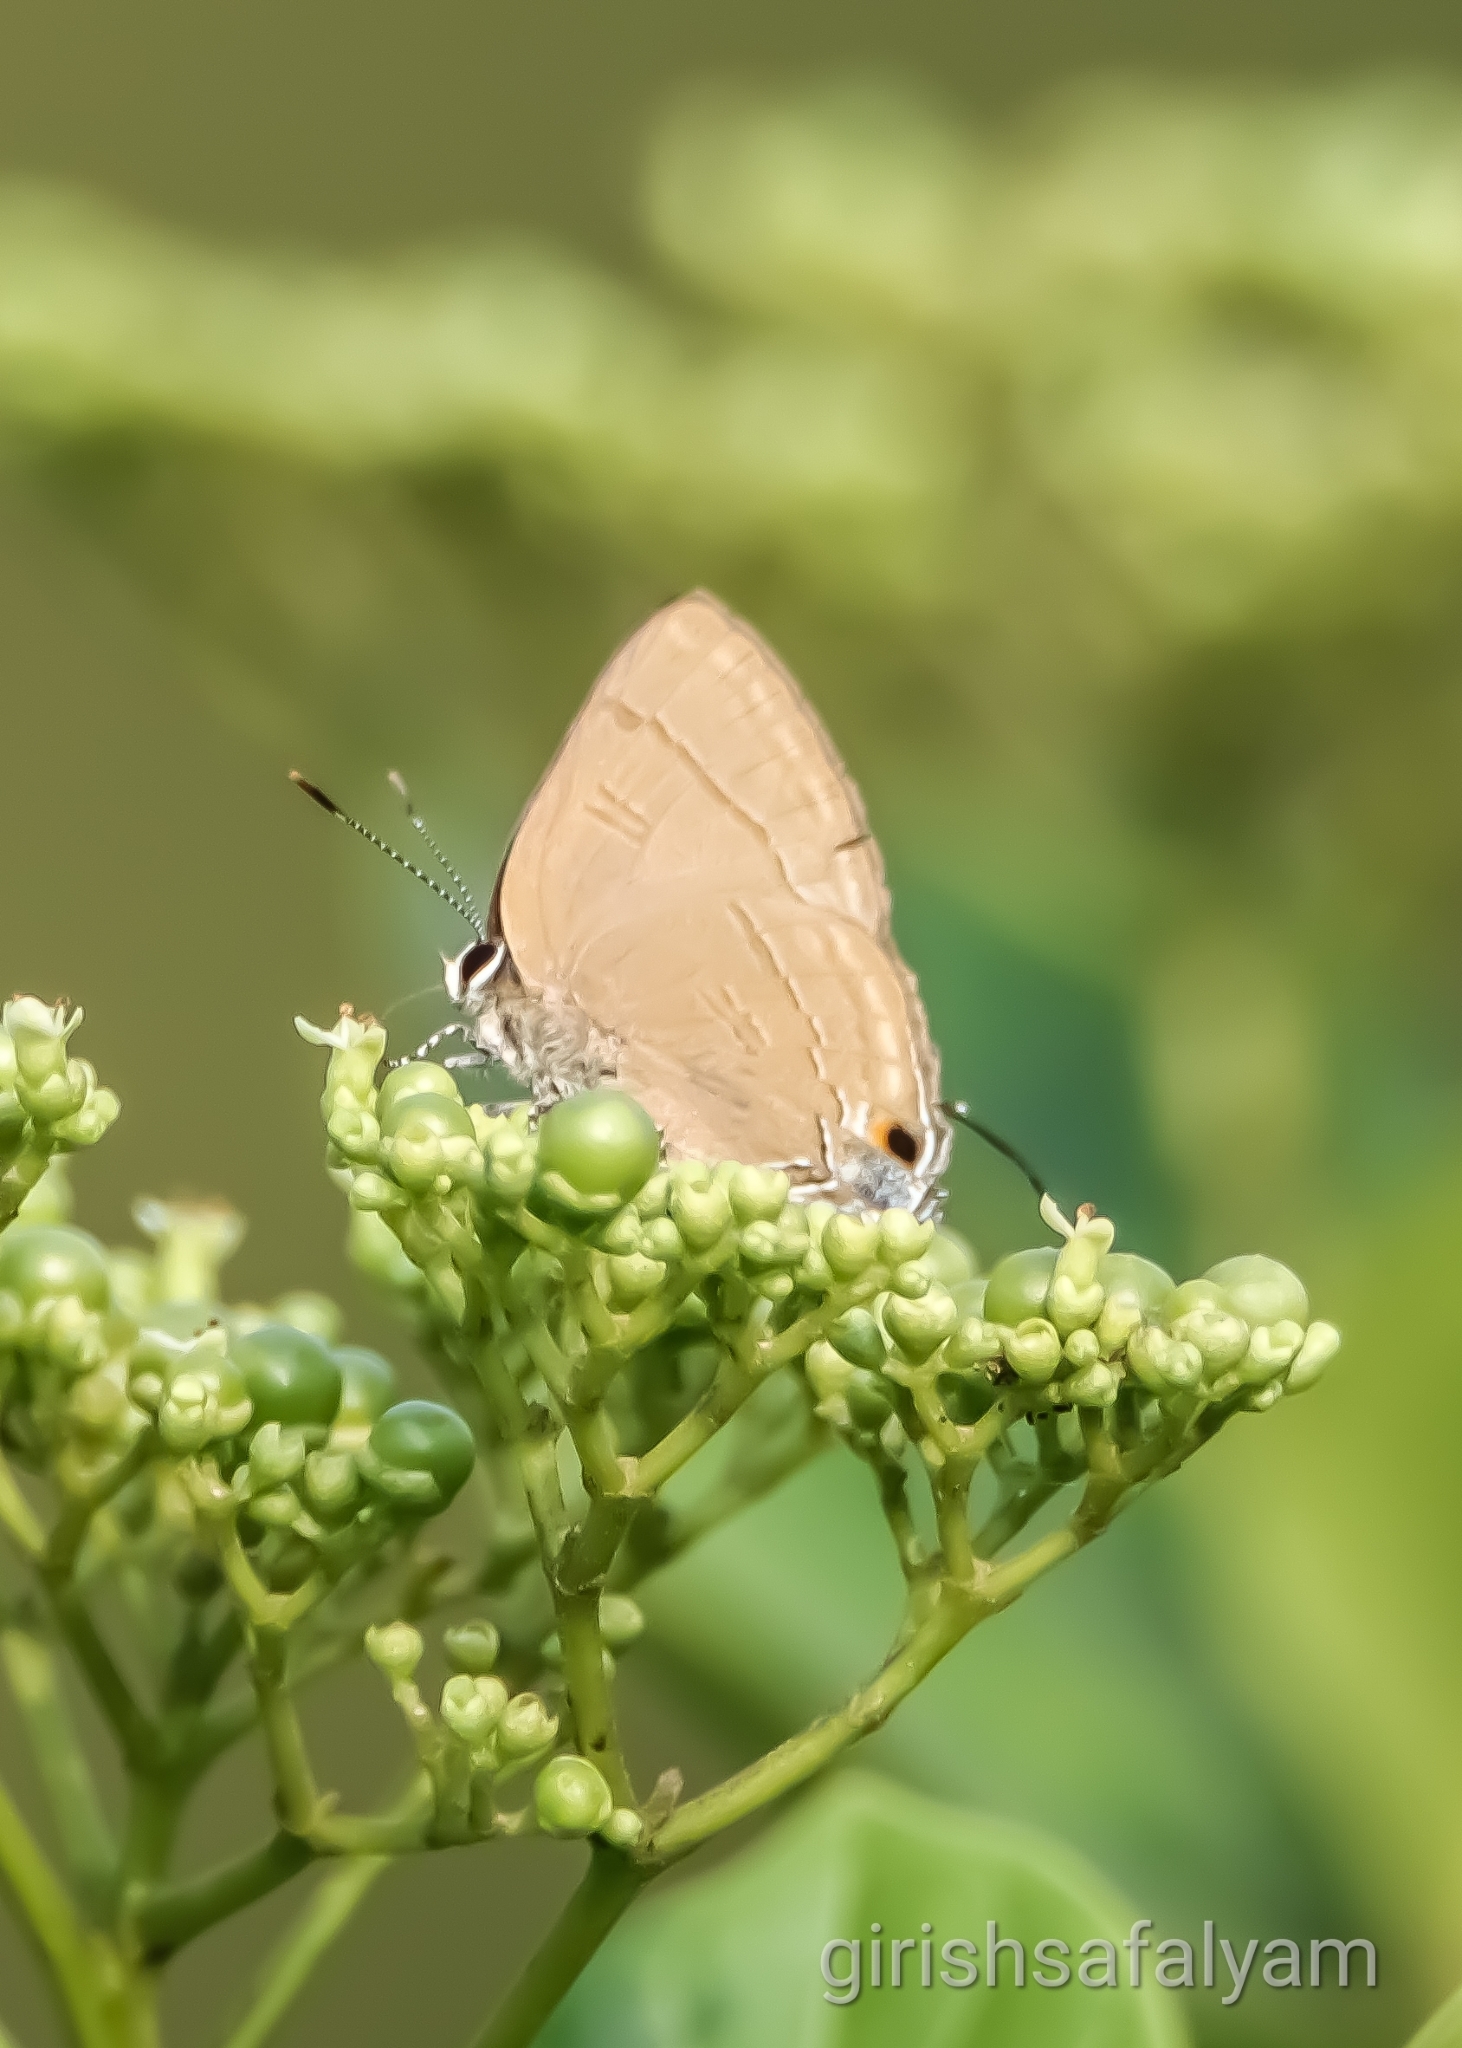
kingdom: Animalia
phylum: Arthropoda
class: Insecta
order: Lepidoptera
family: Lycaenidae
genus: Rapala
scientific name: Rapala manea
